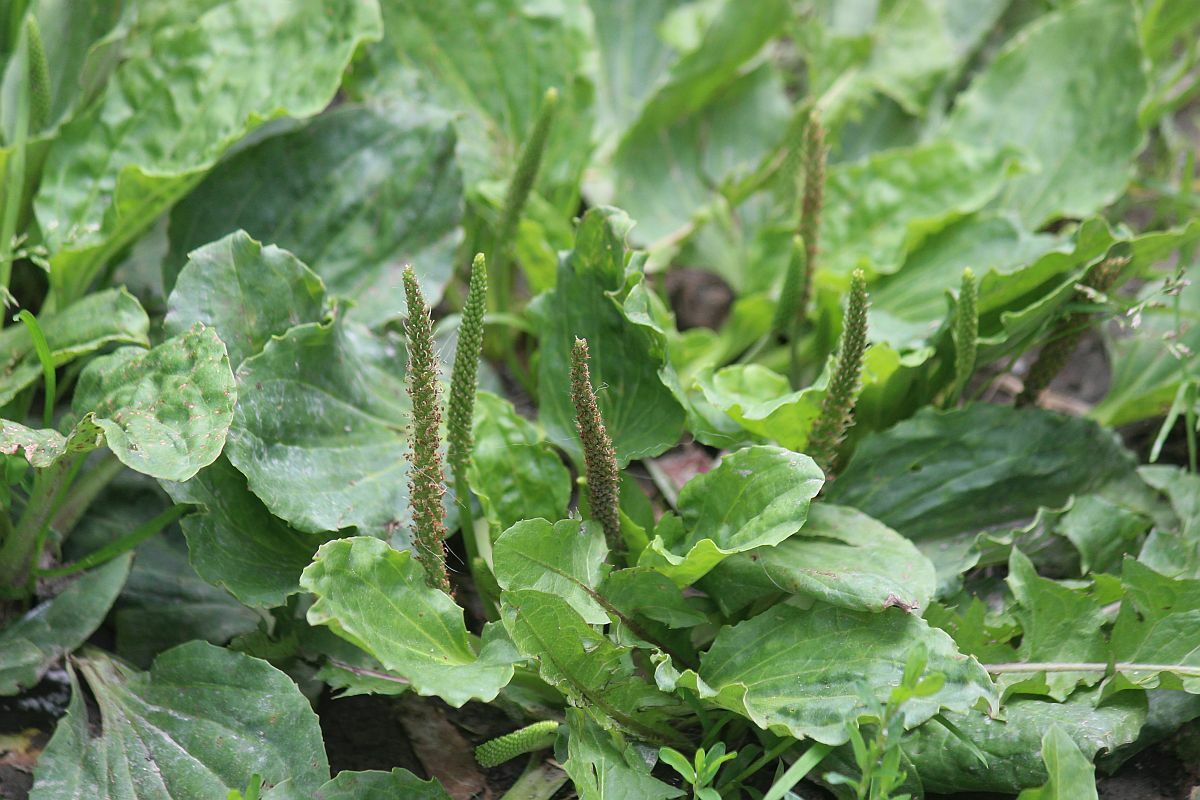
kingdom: Plantae
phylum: Tracheophyta
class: Magnoliopsida
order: Lamiales
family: Plantaginaceae
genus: Plantago
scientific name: Plantago major
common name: Common plantain
